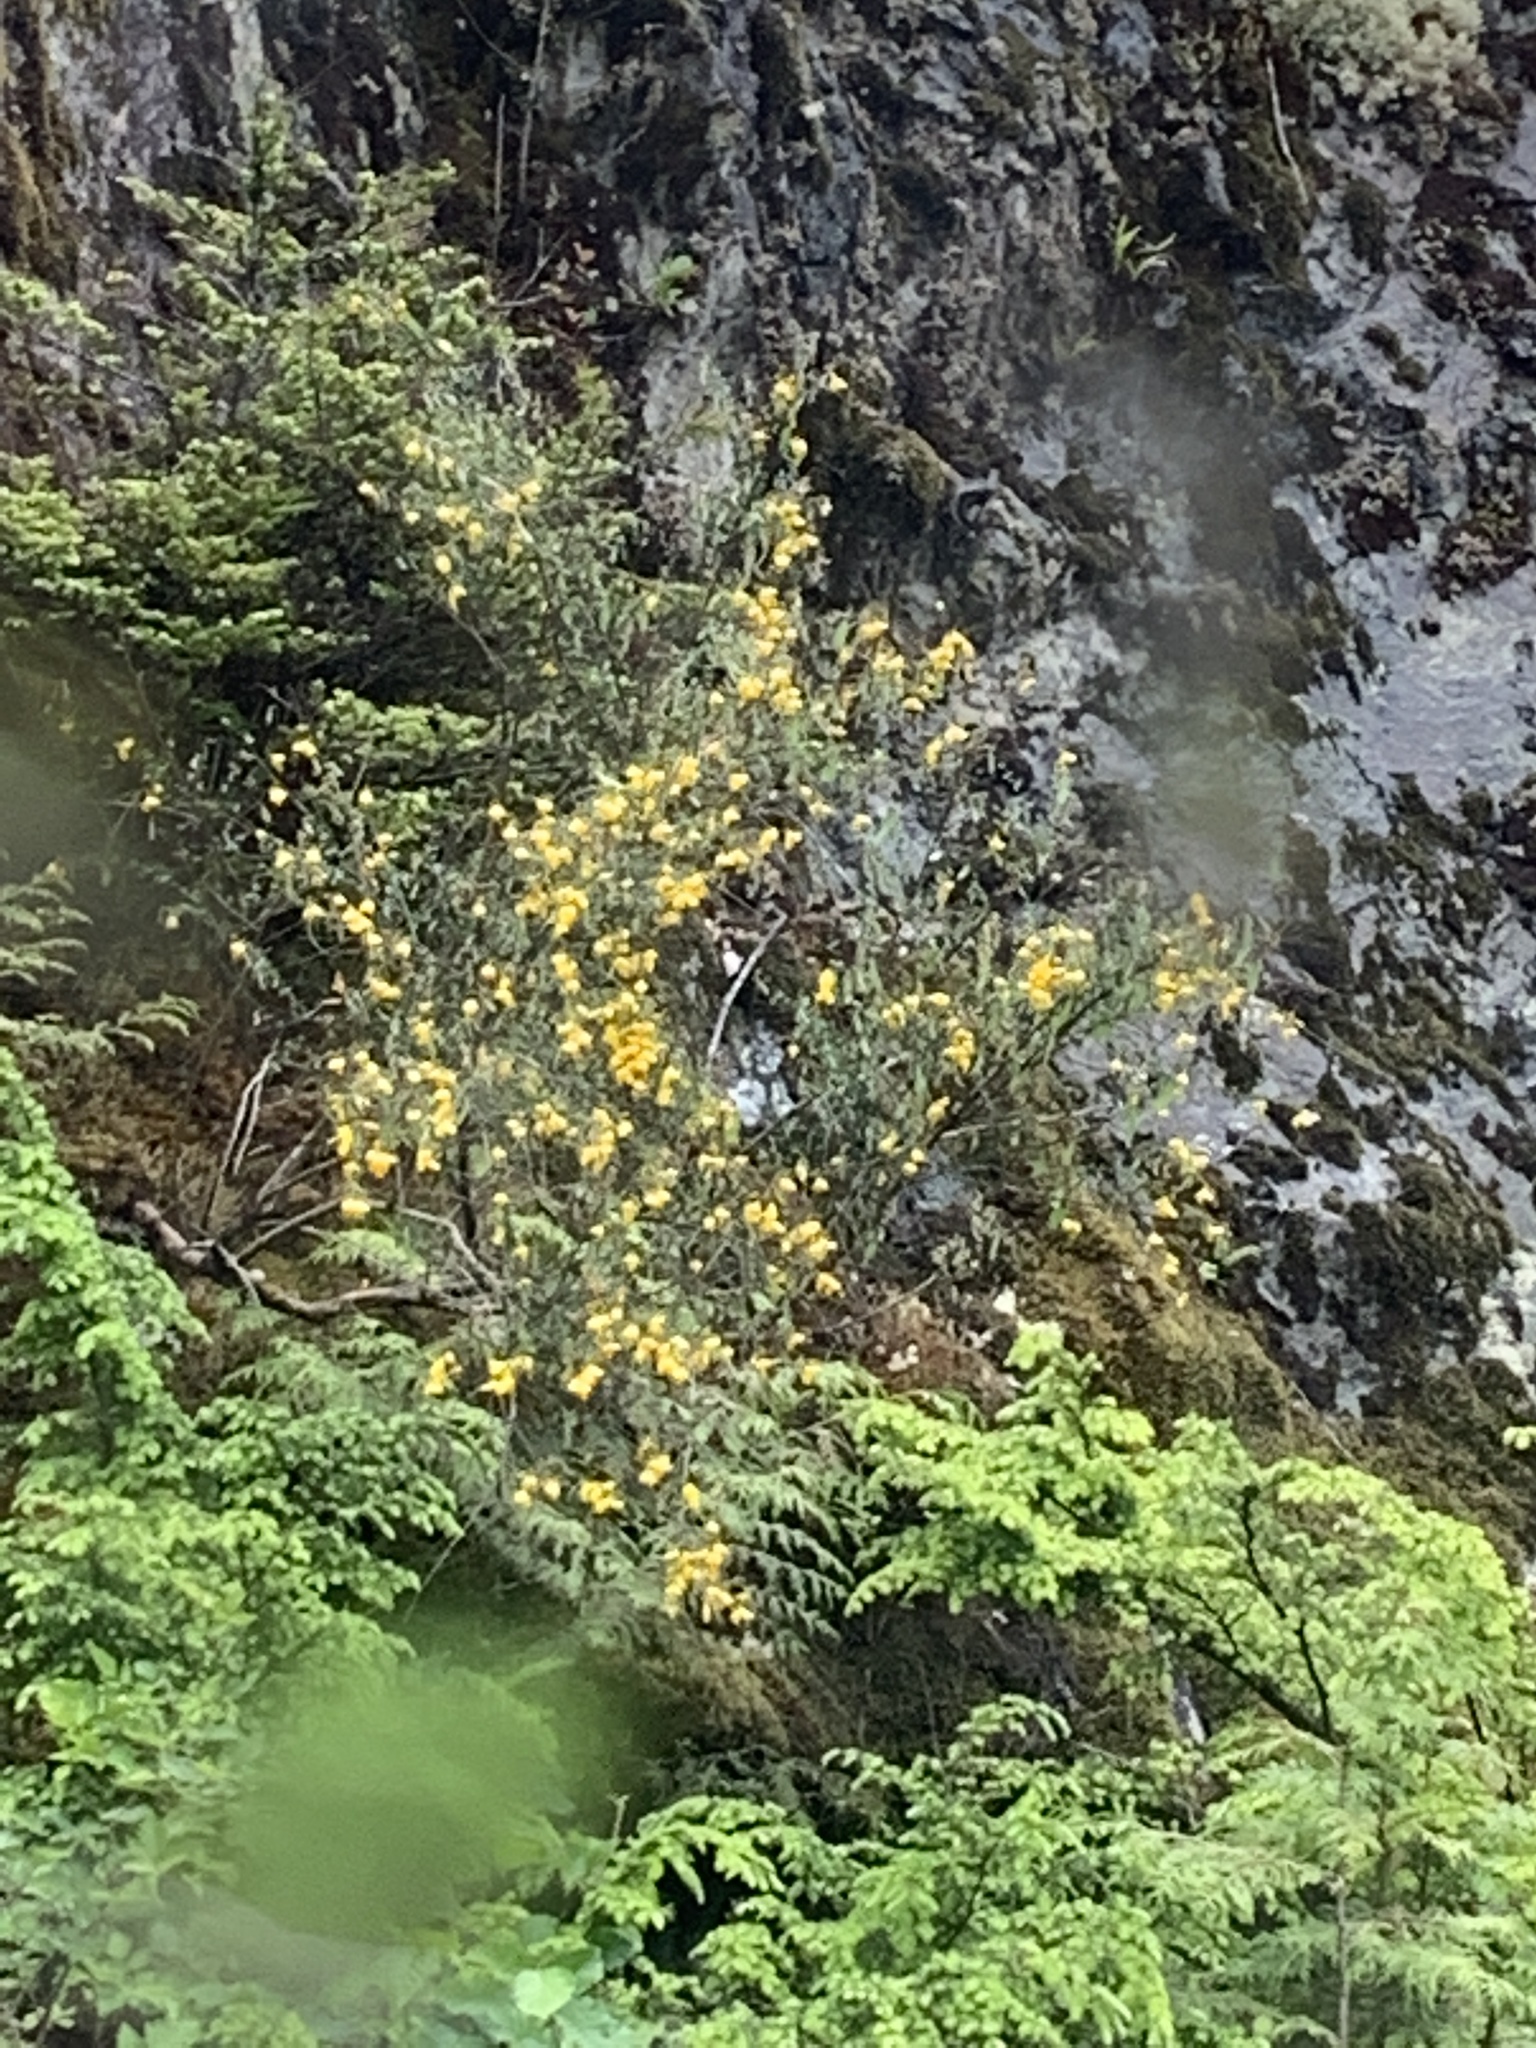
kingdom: Plantae
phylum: Tracheophyta
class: Magnoliopsida
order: Fabales
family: Fabaceae
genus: Cytisus
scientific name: Cytisus scoparius
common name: Scotch broom
